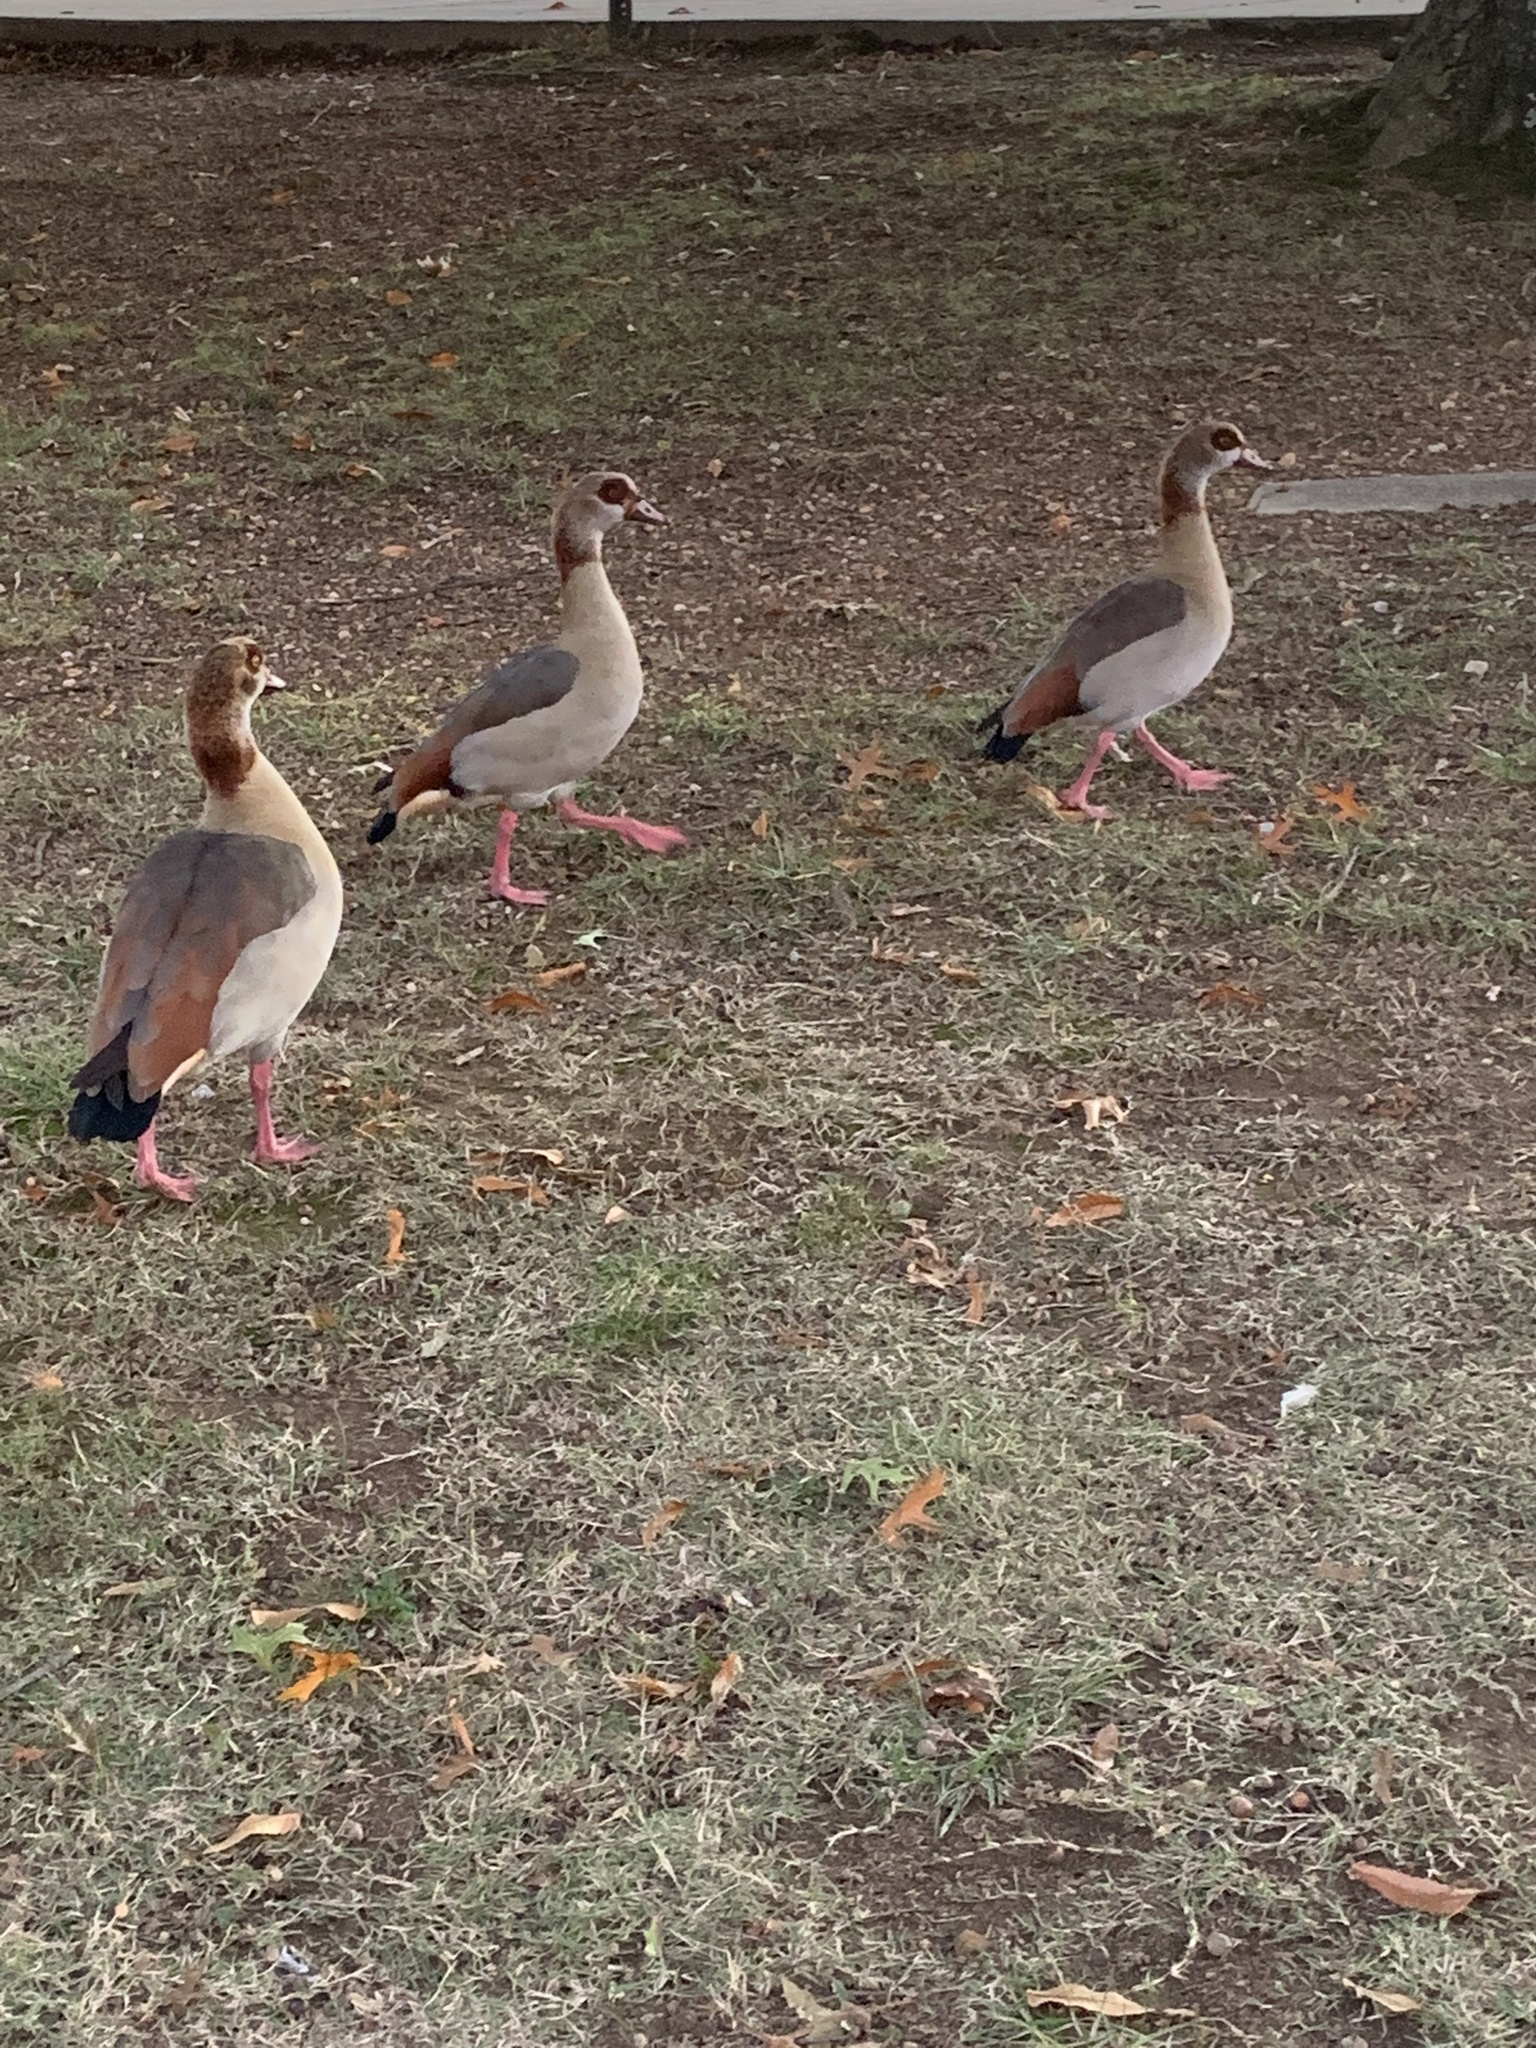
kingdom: Animalia
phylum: Chordata
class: Aves
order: Anseriformes
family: Anatidae
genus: Alopochen
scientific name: Alopochen aegyptiaca
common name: Egyptian goose
